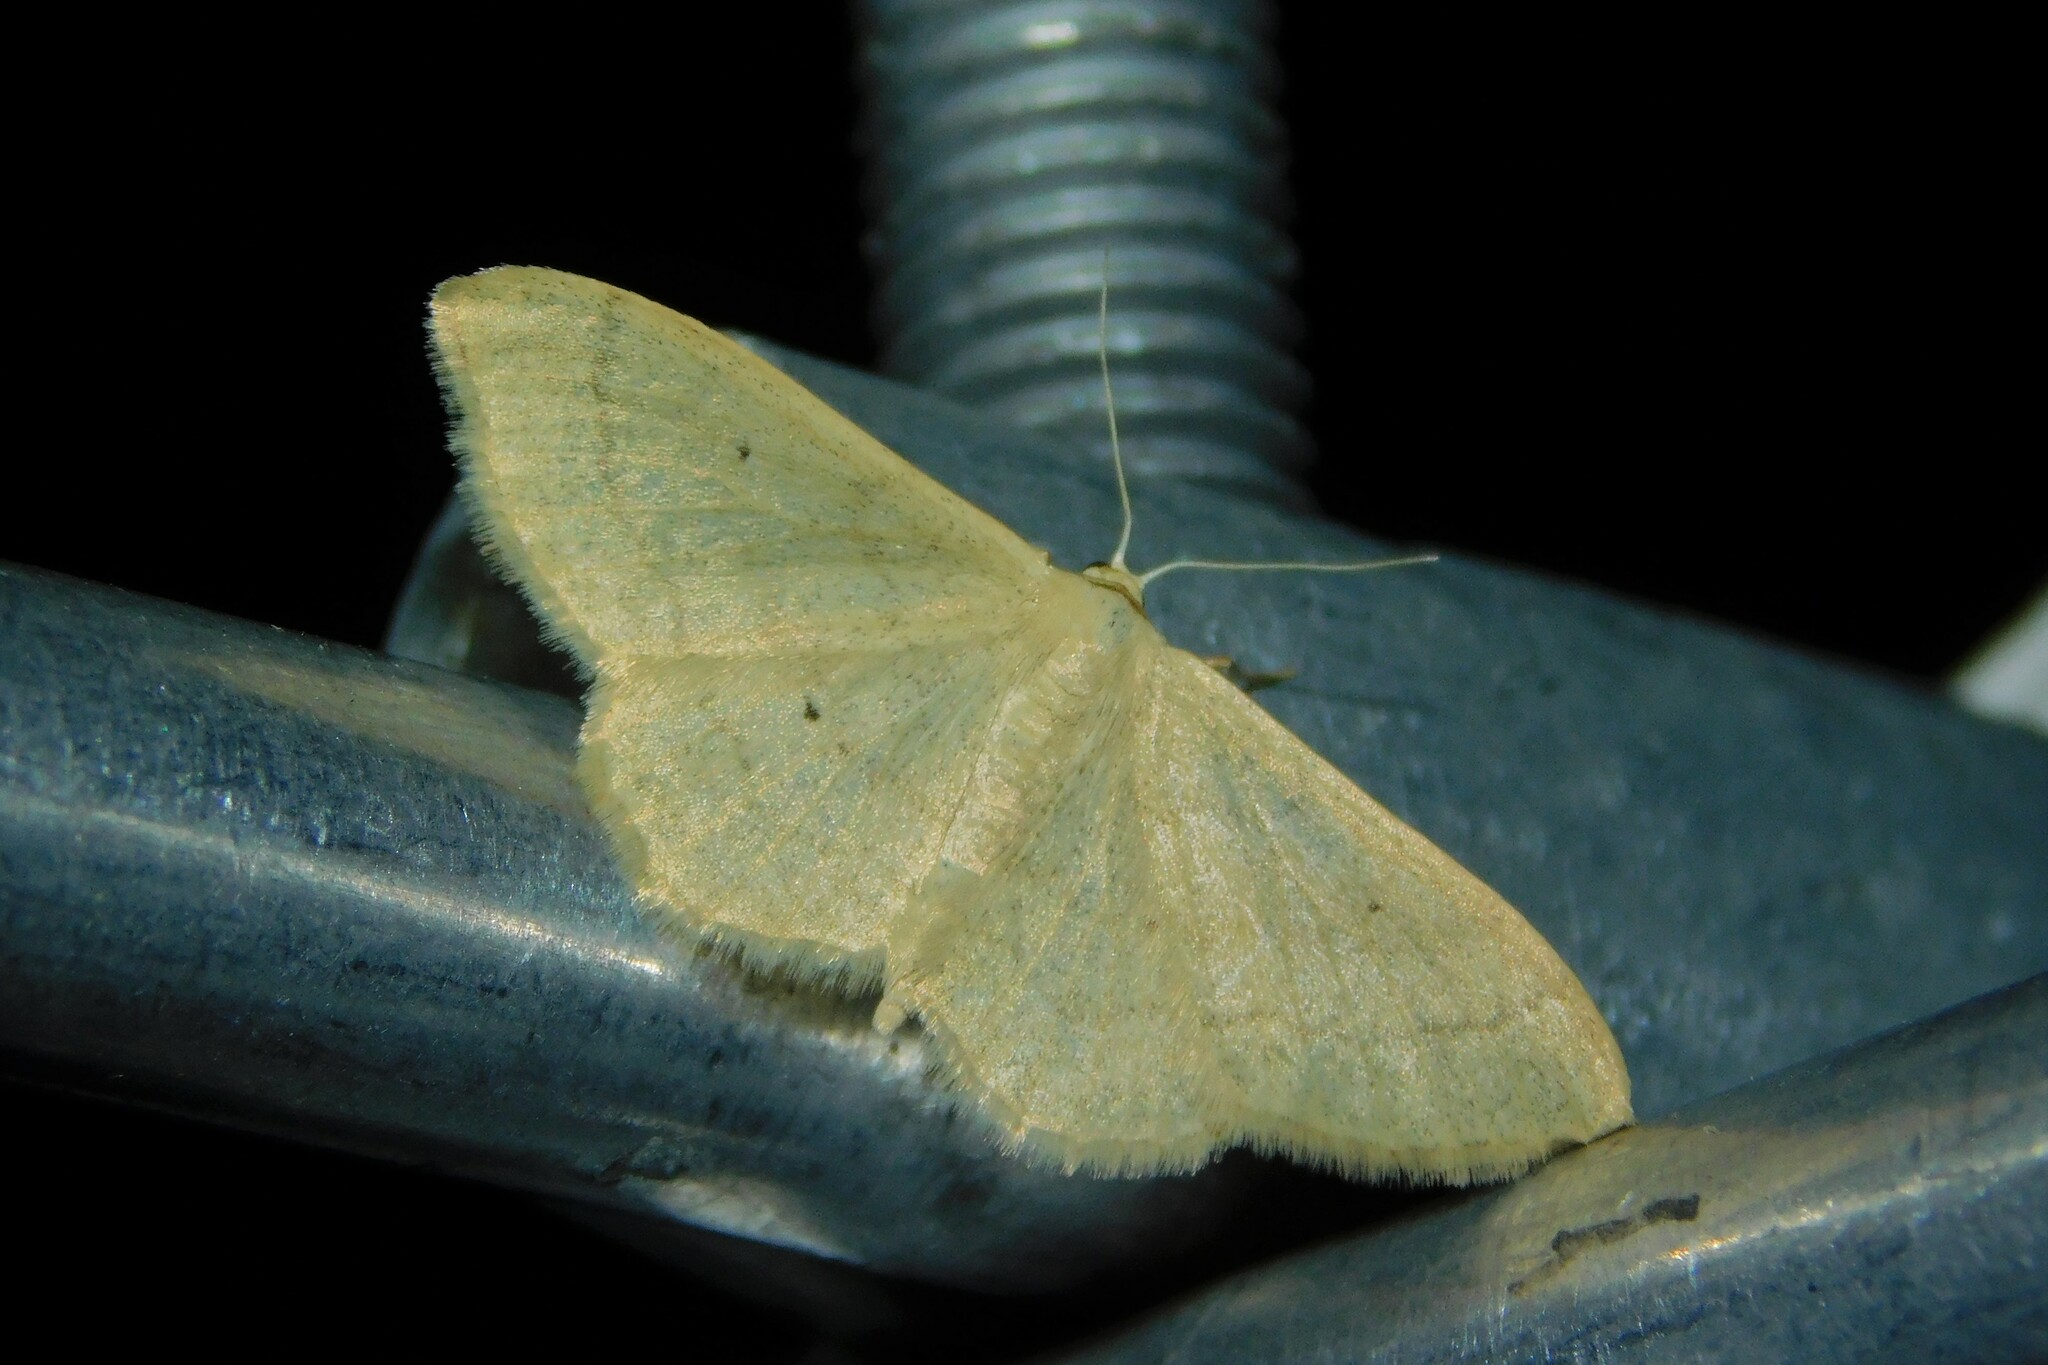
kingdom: Animalia
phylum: Arthropoda
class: Insecta
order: Lepidoptera
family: Geometridae
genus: Idaea
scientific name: Idaea straminata
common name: Plain wave
